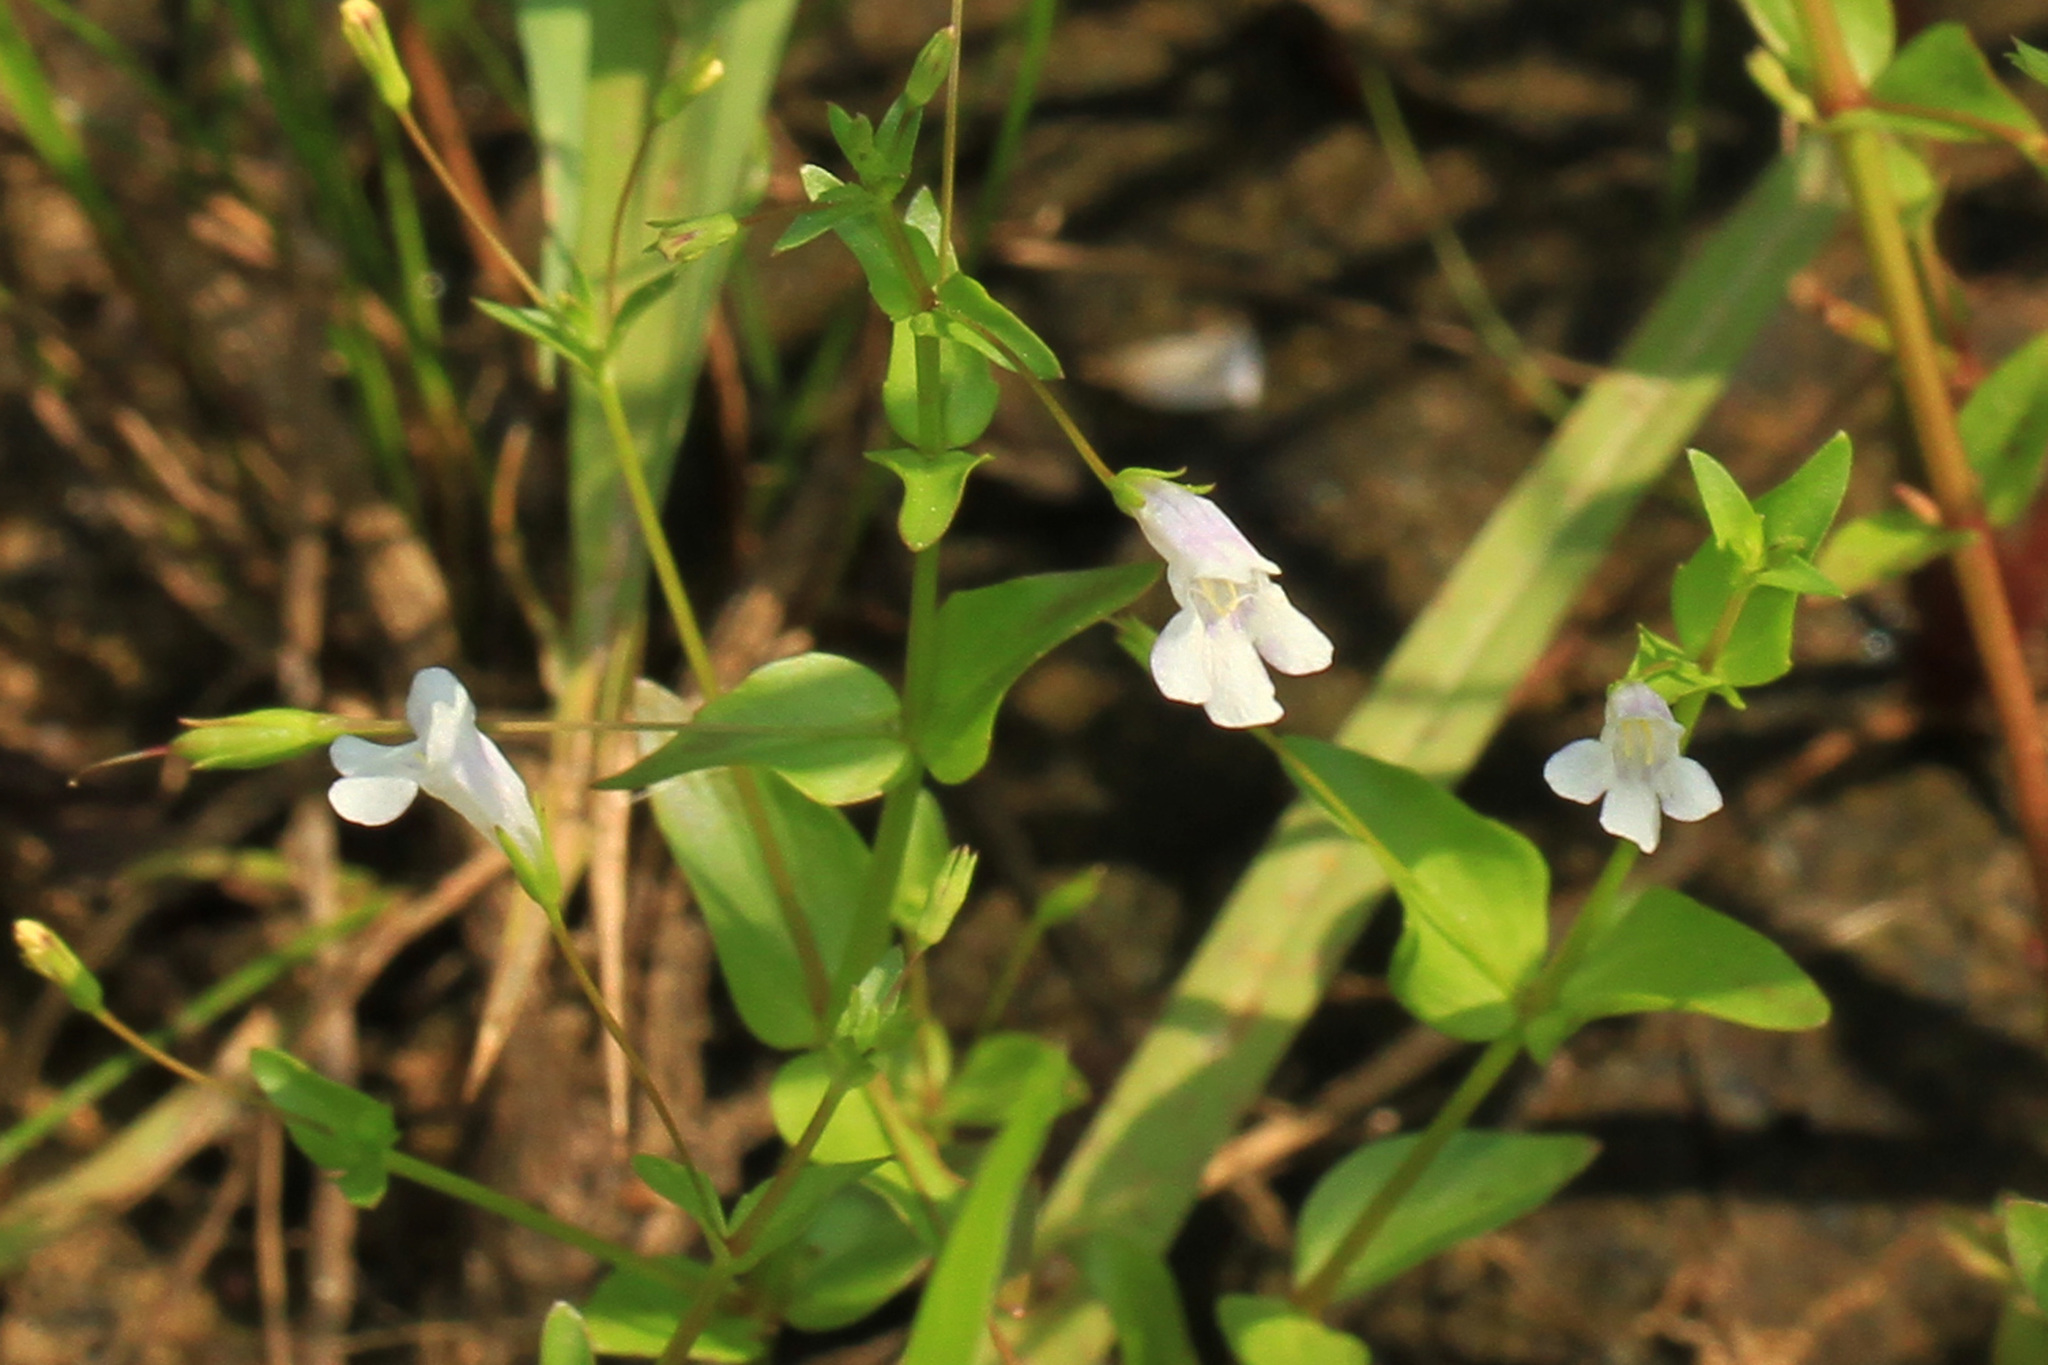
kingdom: Plantae
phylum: Tracheophyta
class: Magnoliopsida
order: Lamiales
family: Linderniaceae
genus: Lindernia
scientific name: Lindernia dubia
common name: Annual false pimpernel
